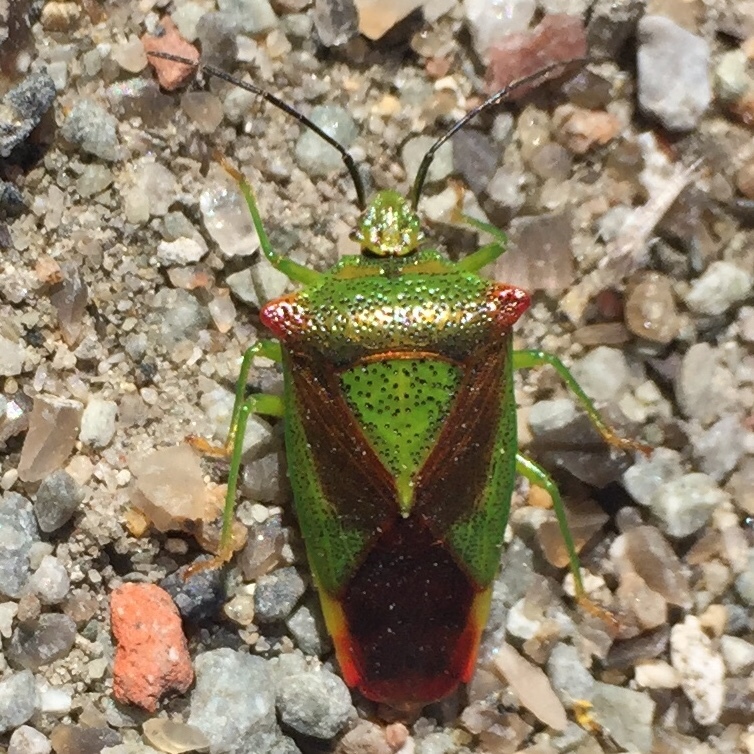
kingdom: Animalia
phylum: Arthropoda
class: Insecta
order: Hemiptera
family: Acanthosomatidae
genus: Acanthosoma
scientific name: Acanthosoma haemorrhoidale
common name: Hawthorn shieldbug
